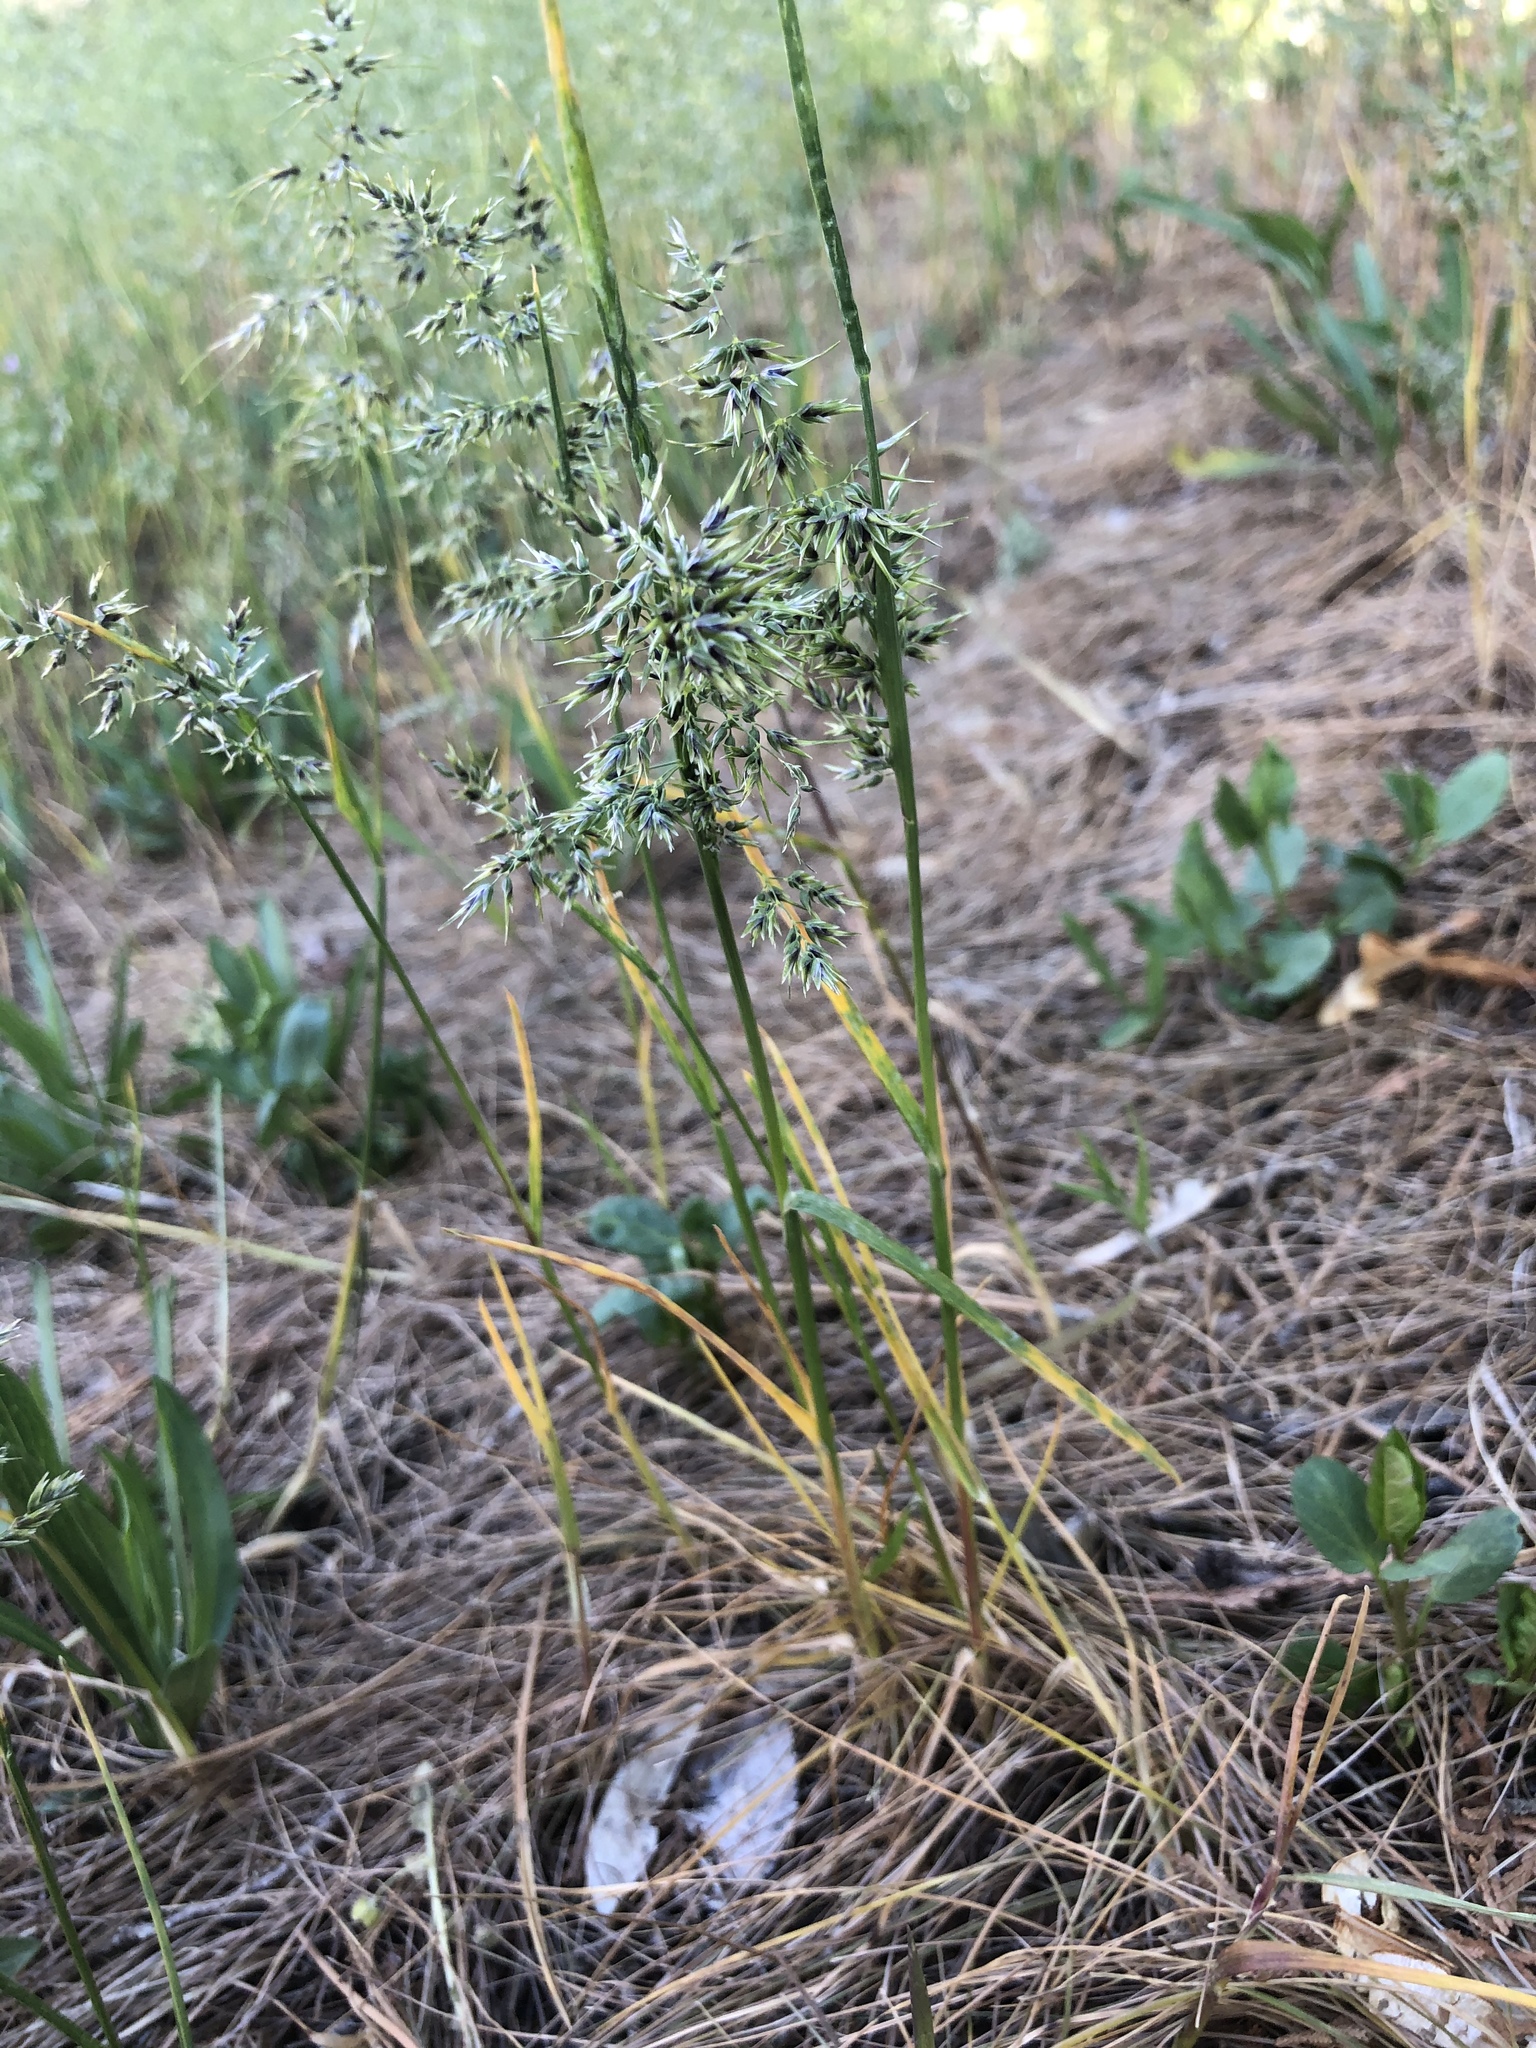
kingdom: Plantae
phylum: Tracheophyta
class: Liliopsida
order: Poales
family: Poaceae
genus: Poa
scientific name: Poa bulbosa
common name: Bulbous bluegrass
